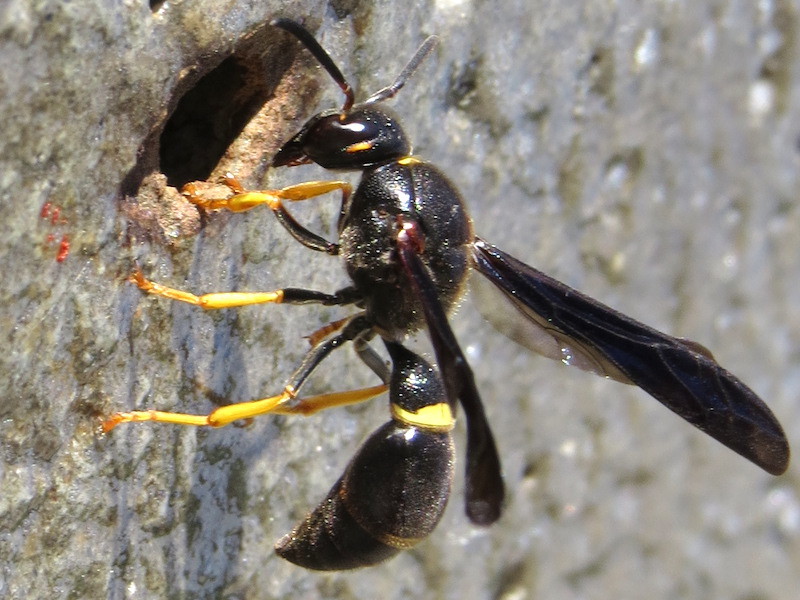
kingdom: Animalia
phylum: Arthropoda
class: Insecta
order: Hymenoptera
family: Eumenidae
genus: Parazumia
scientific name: Parazumia symmorpha
